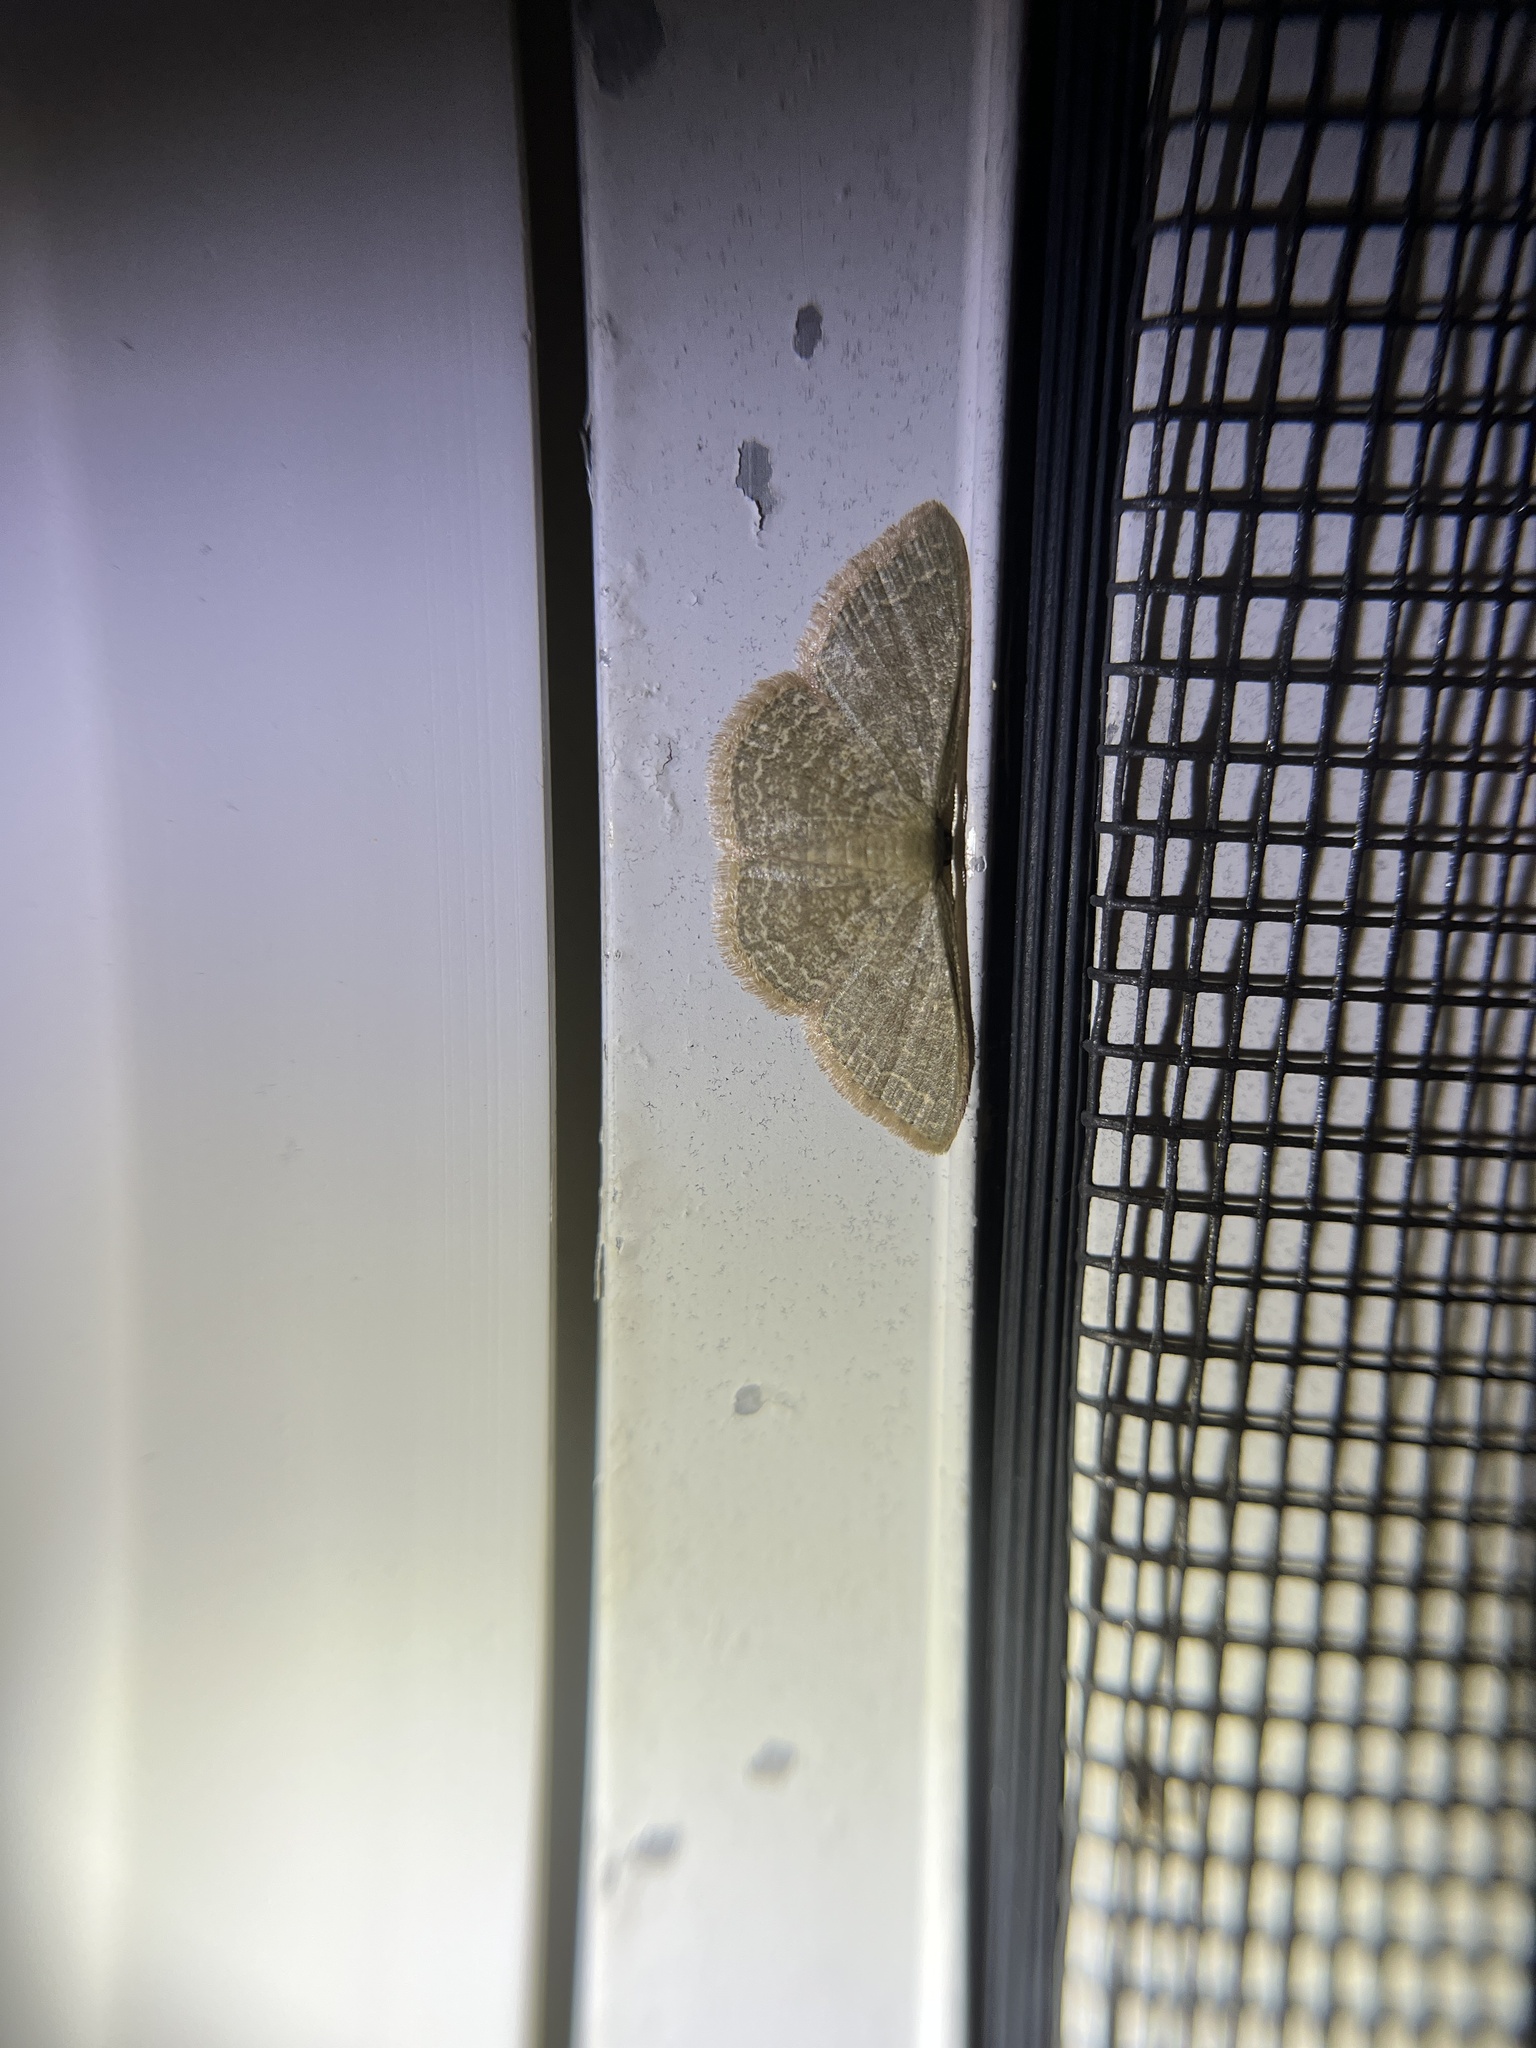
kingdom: Animalia
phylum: Arthropoda
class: Insecta
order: Lepidoptera
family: Geometridae
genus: Pleuroprucha
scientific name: Pleuroprucha insulsaria
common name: Common tan wave
